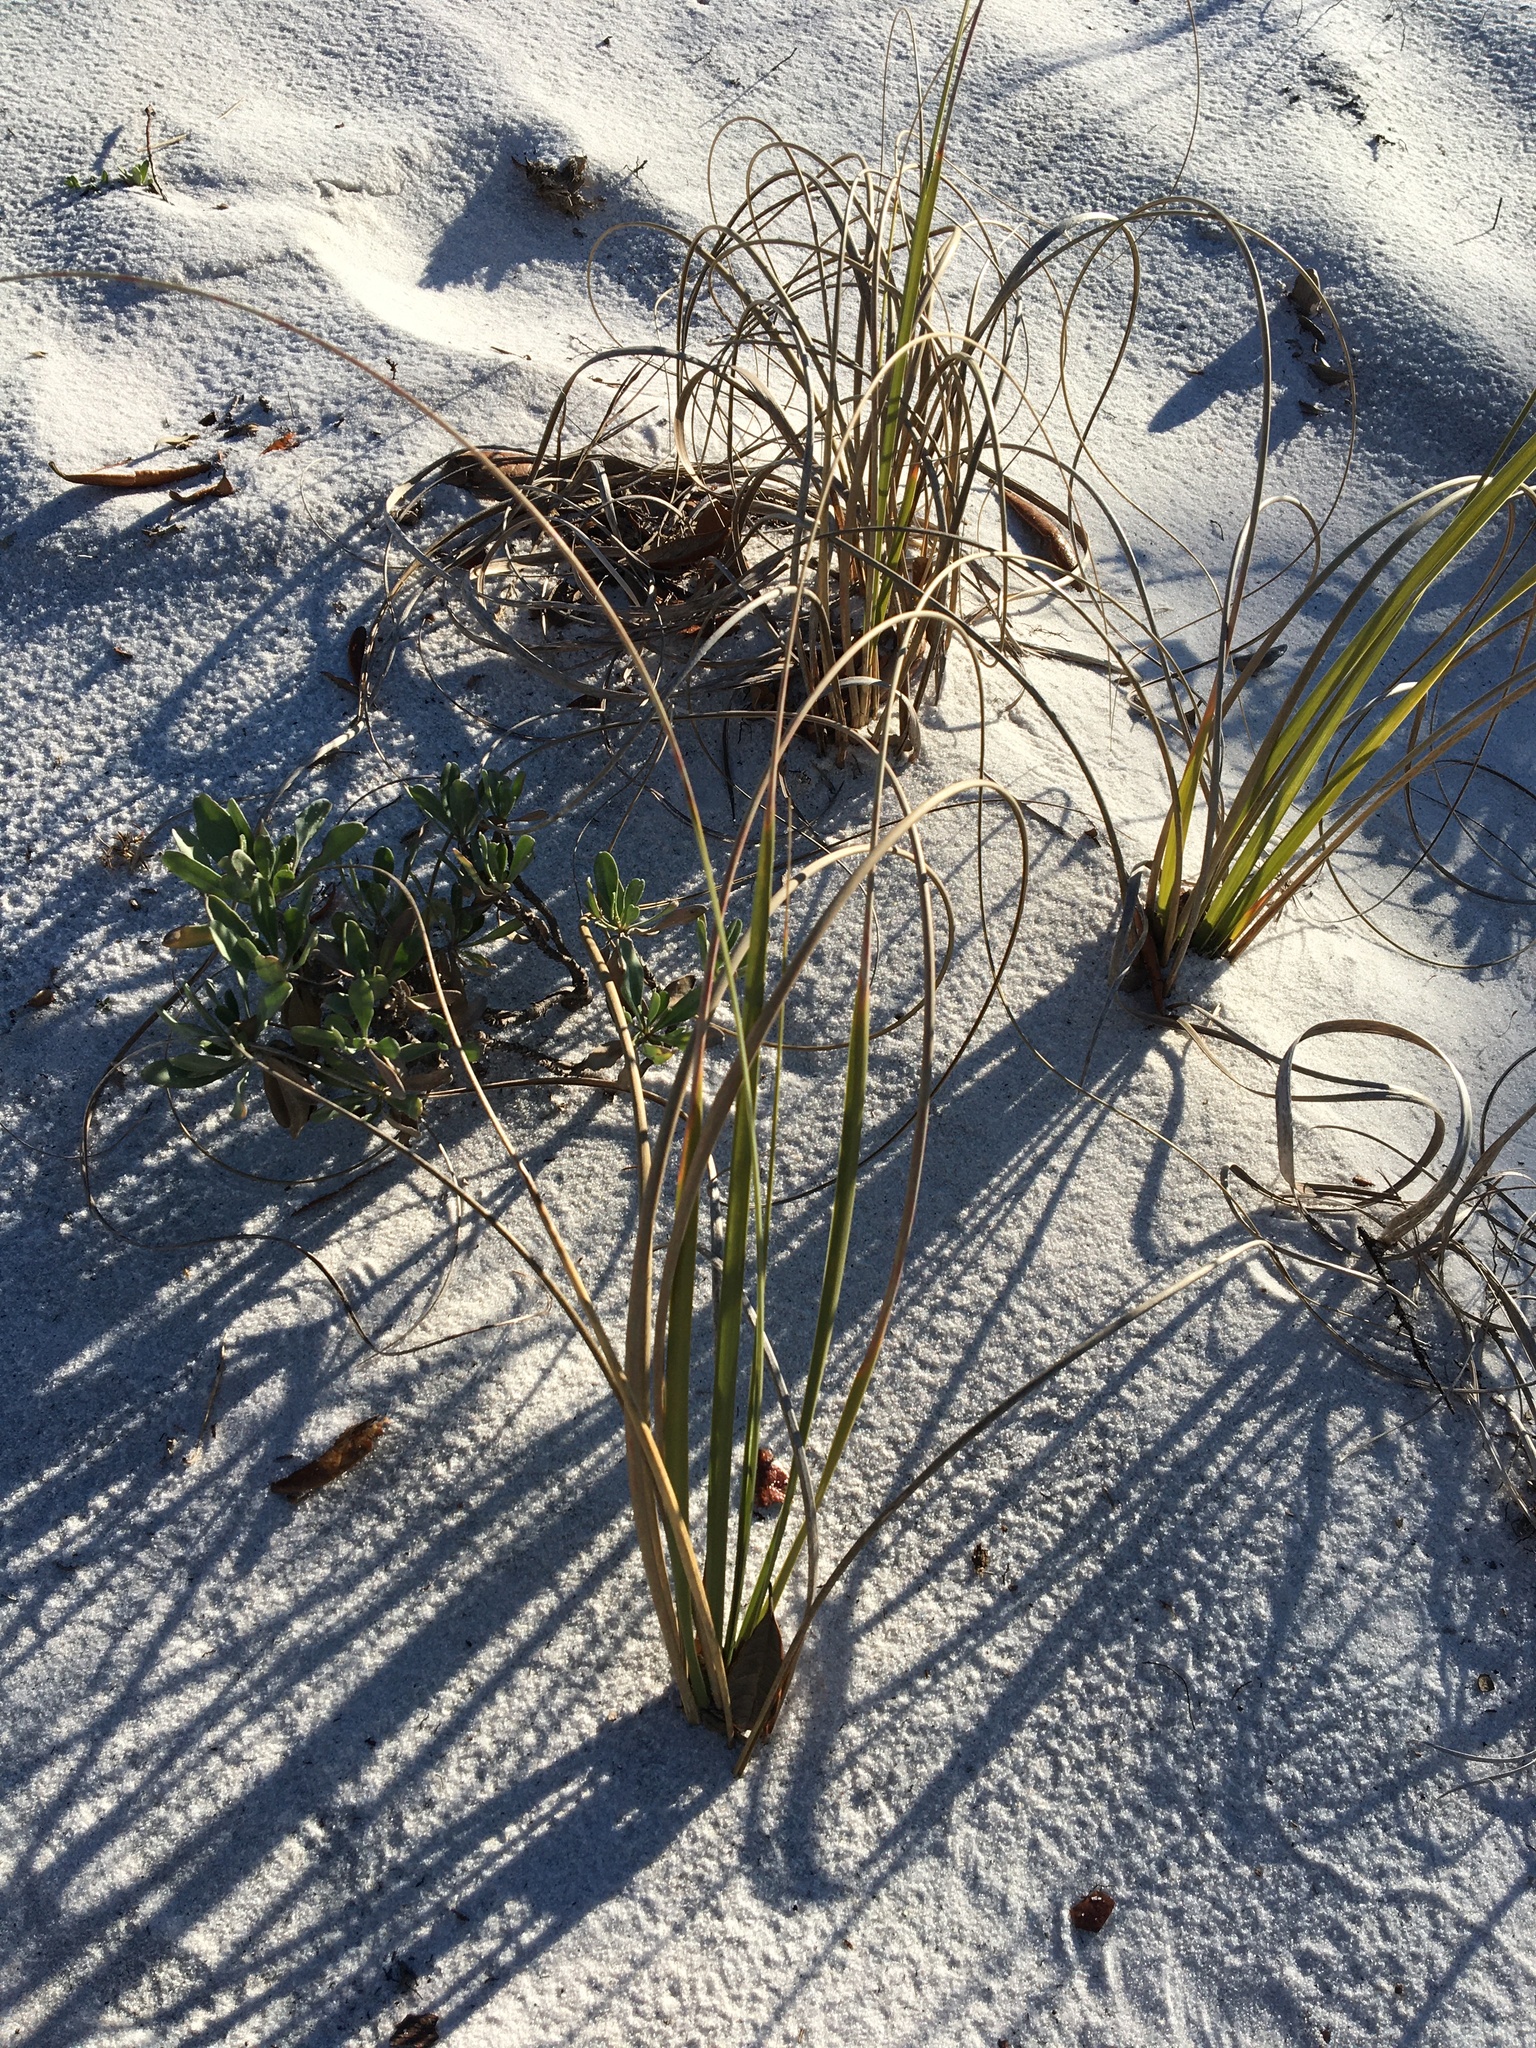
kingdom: Plantae
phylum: Tracheophyta
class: Liliopsida
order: Poales
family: Poaceae
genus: Uniola
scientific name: Uniola paniculata
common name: Seaside-oats
